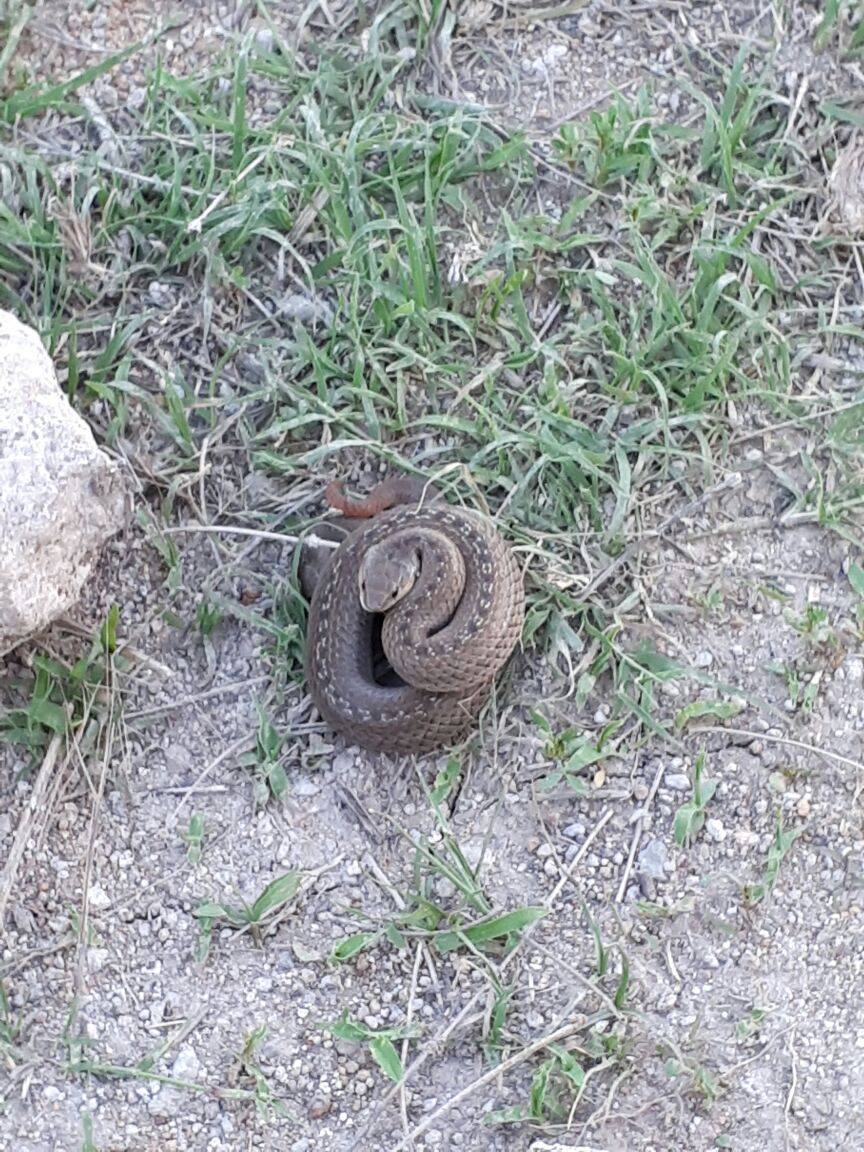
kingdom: Animalia
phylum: Chordata
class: Squamata
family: Colubridae
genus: Conopsis
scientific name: Conopsis lineata
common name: Lined tolucan earthsnake
